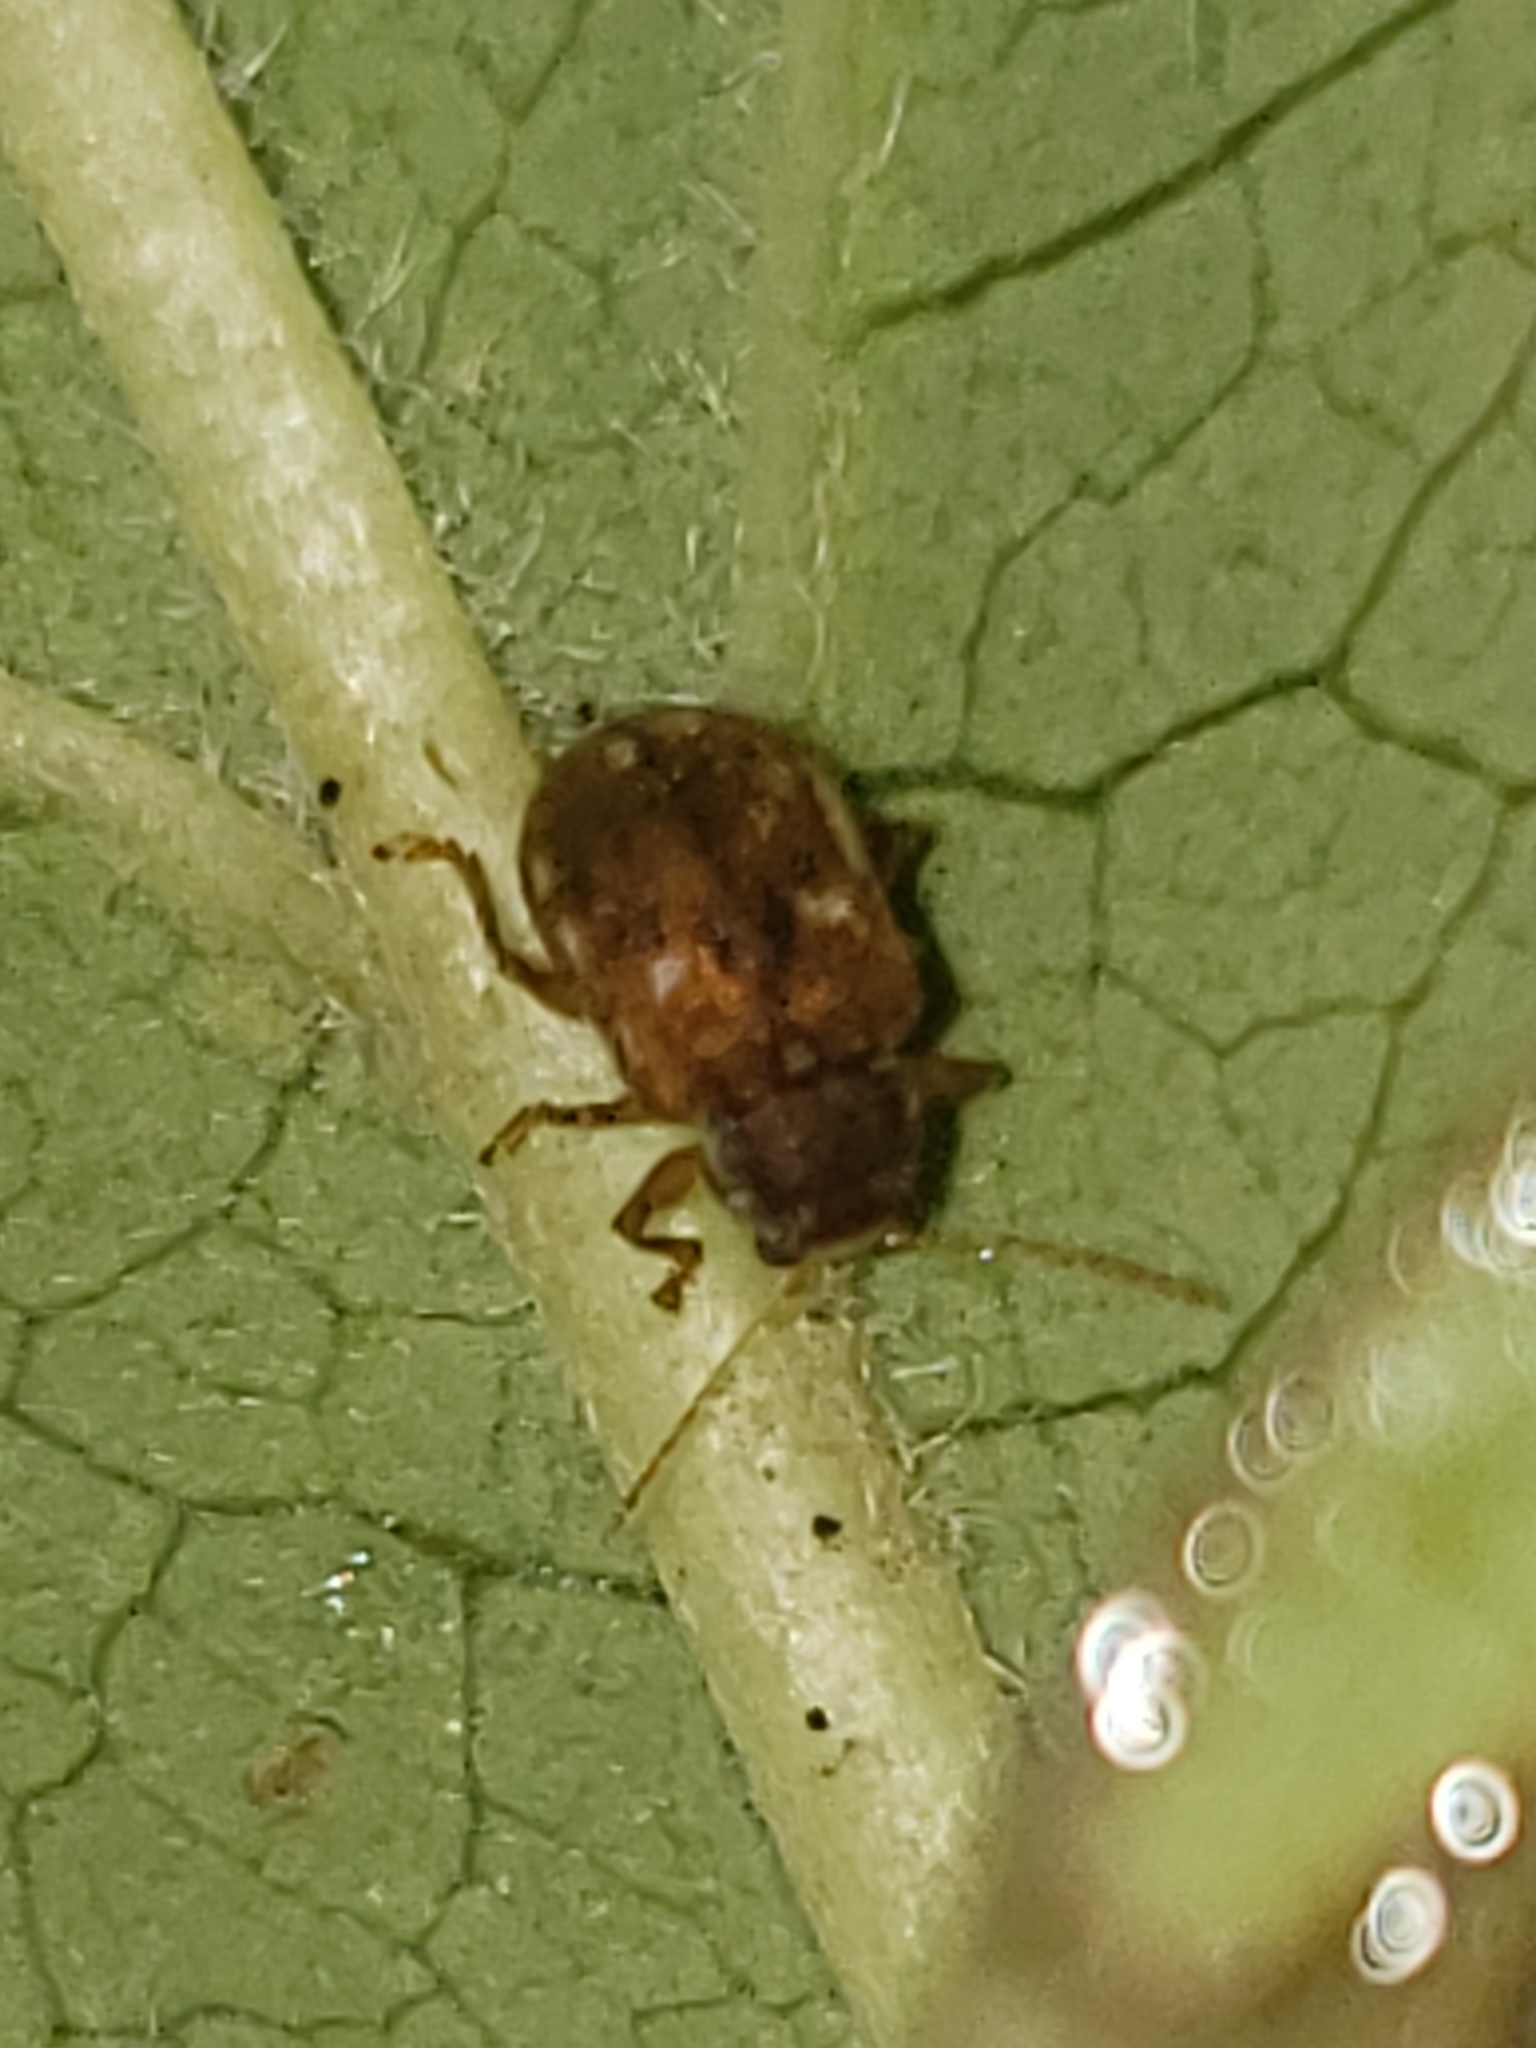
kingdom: Animalia
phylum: Arthropoda
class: Insecta
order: Coleoptera
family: Chrysomelidae
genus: Demotina
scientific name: Demotina modesta
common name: Leaf beetle
